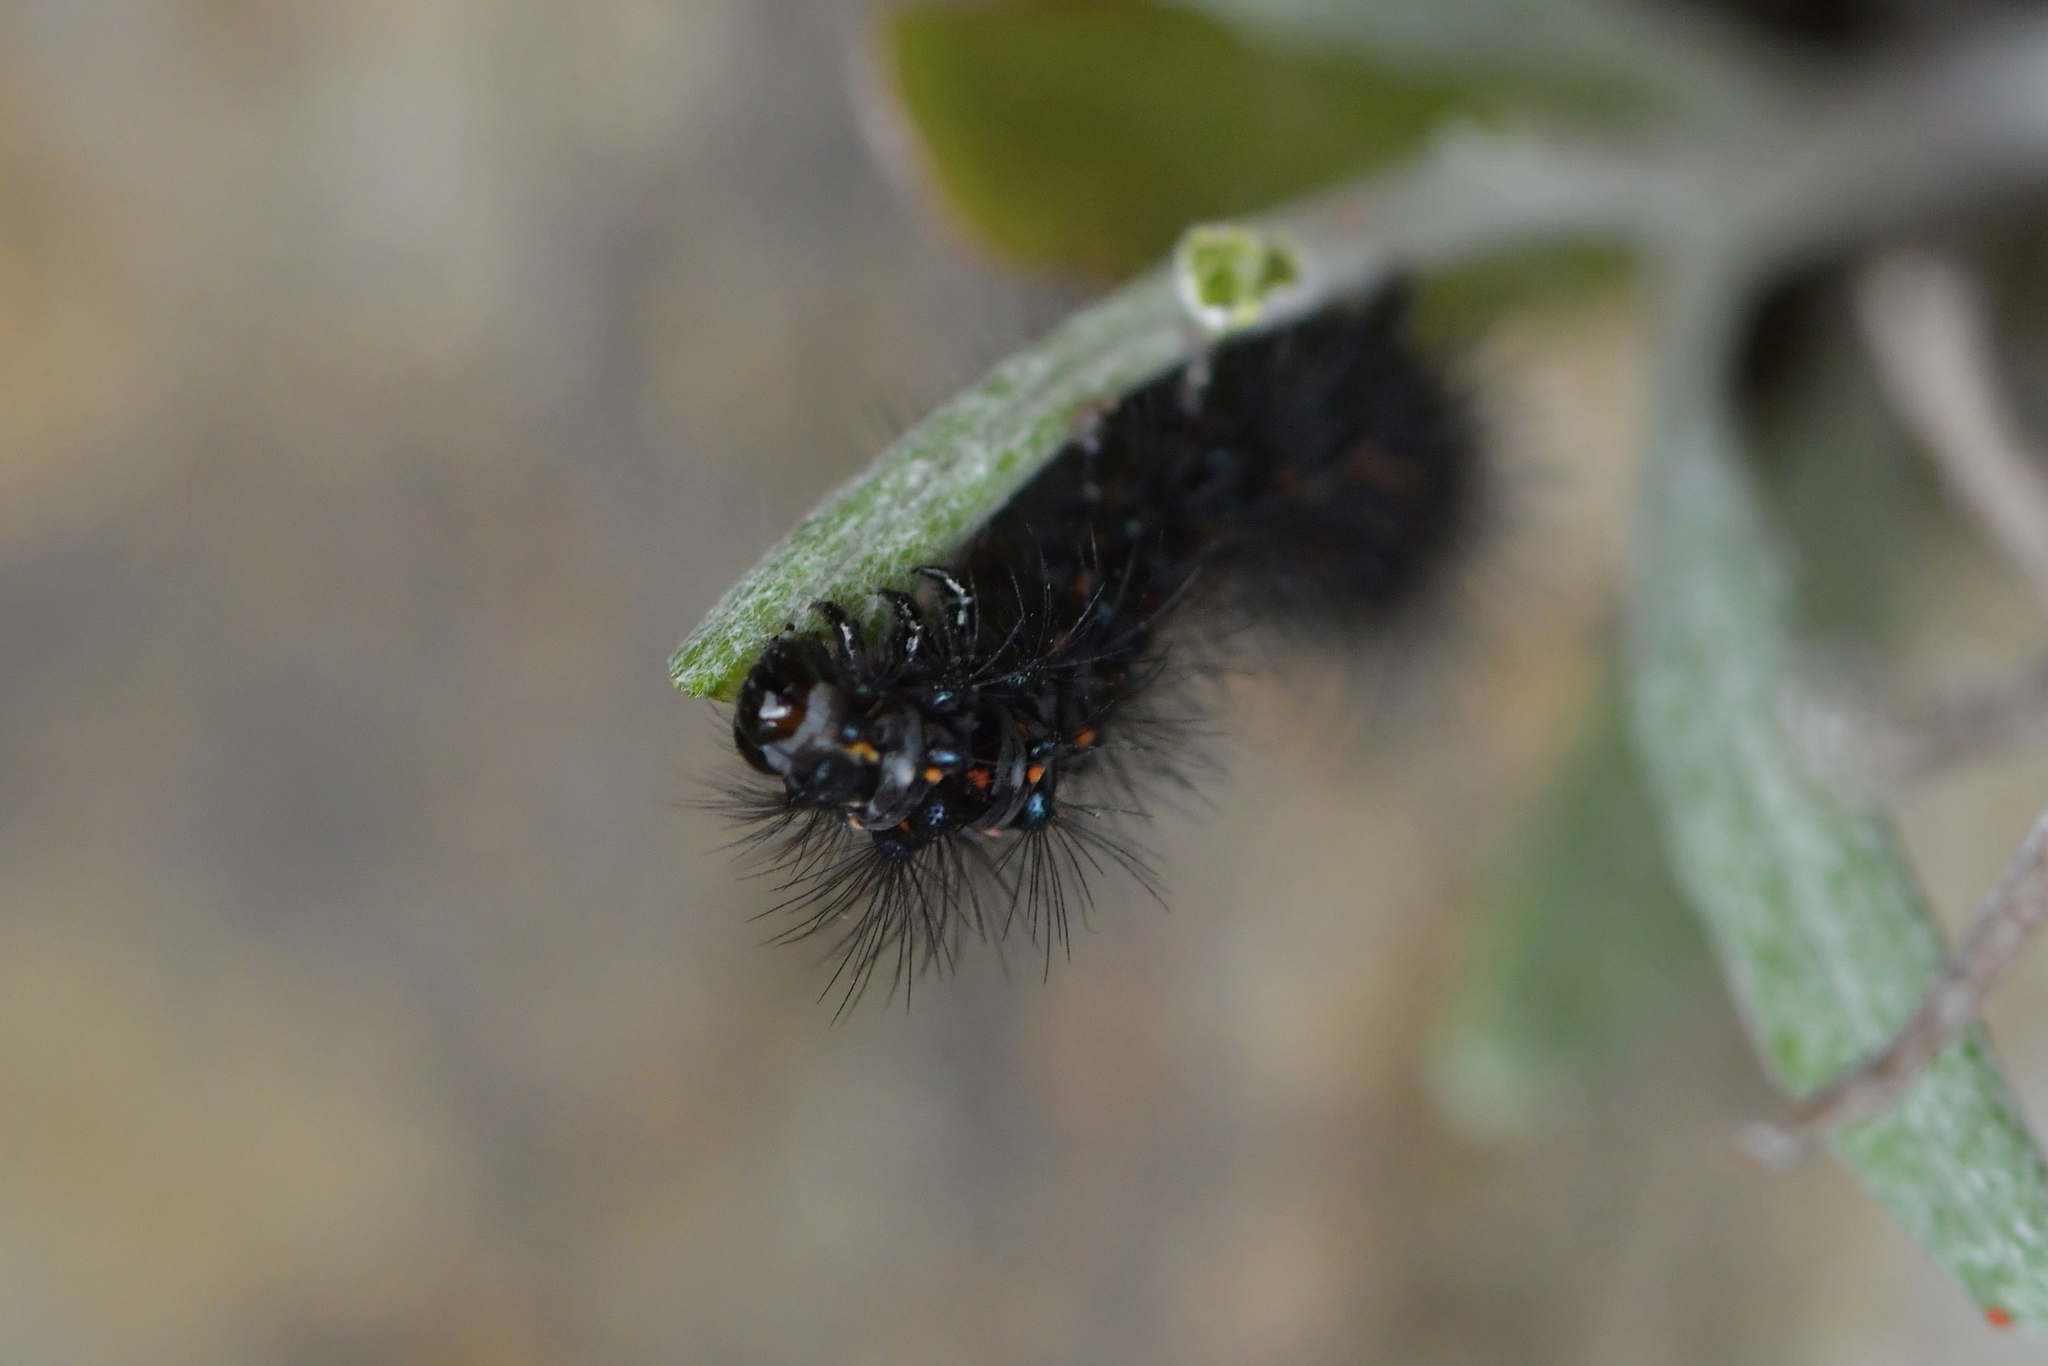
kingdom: Animalia
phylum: Arthropoda
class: Insecta
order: Lepidoptera
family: Erebidae
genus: Nyctemera
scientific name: Nyctemera annulatum
